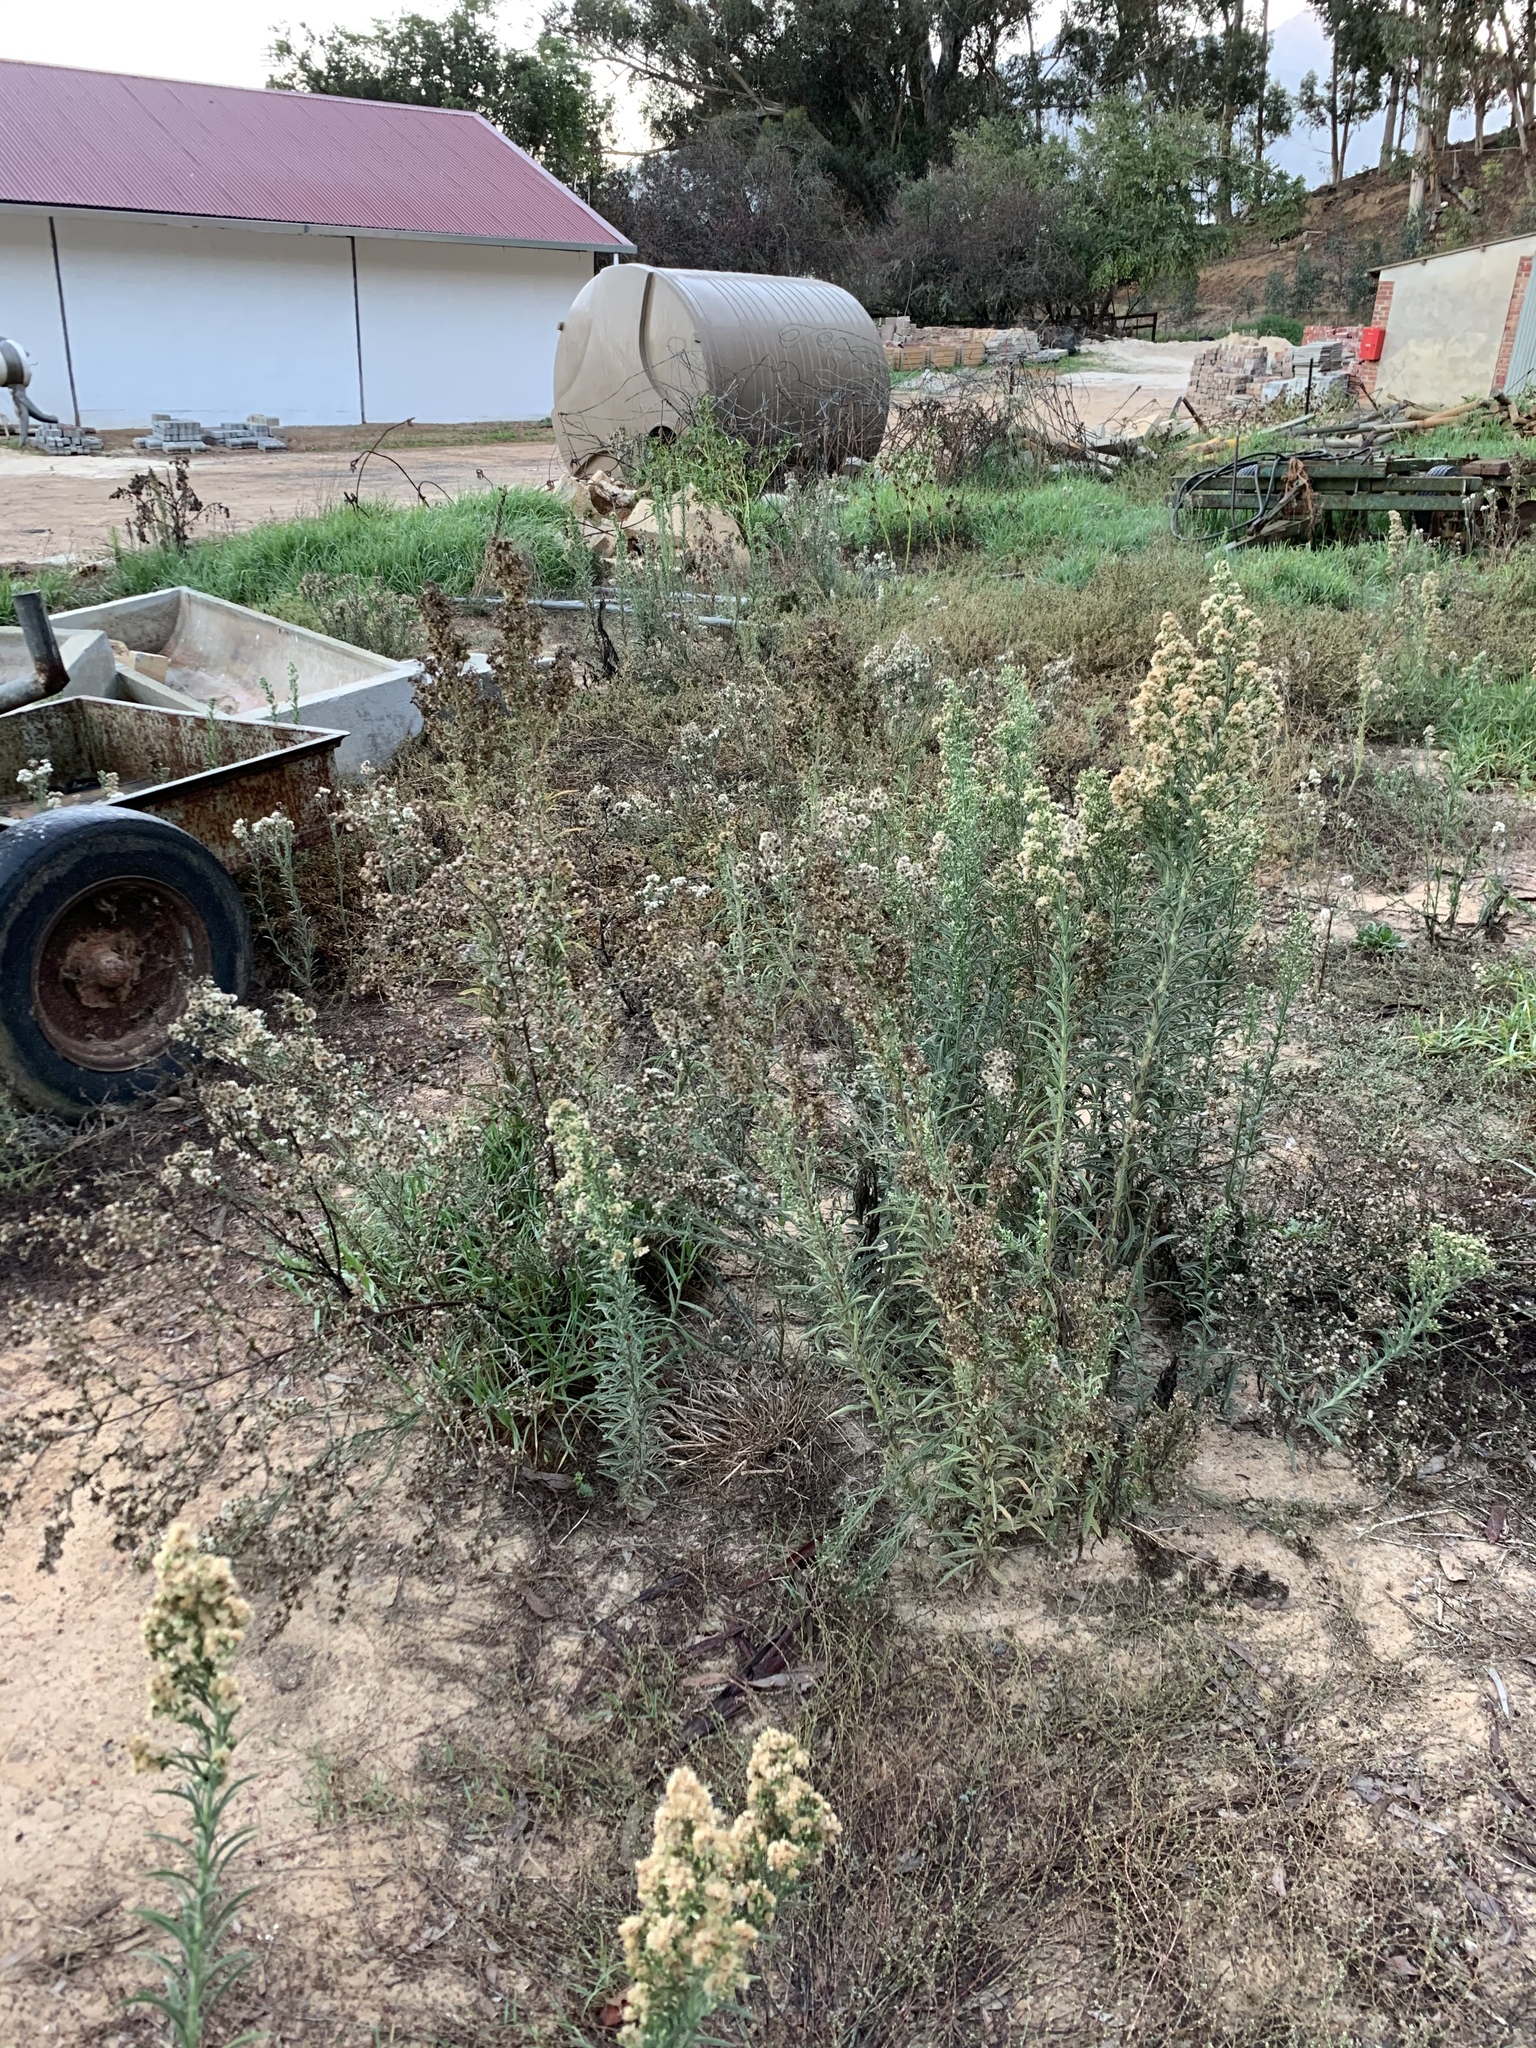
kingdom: Plantae
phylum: Tracheophyta
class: Magnoliopsida
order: Asterales
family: Asteraceae
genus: Erigeron
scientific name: Erigeron sumatrensis
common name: Daisy
